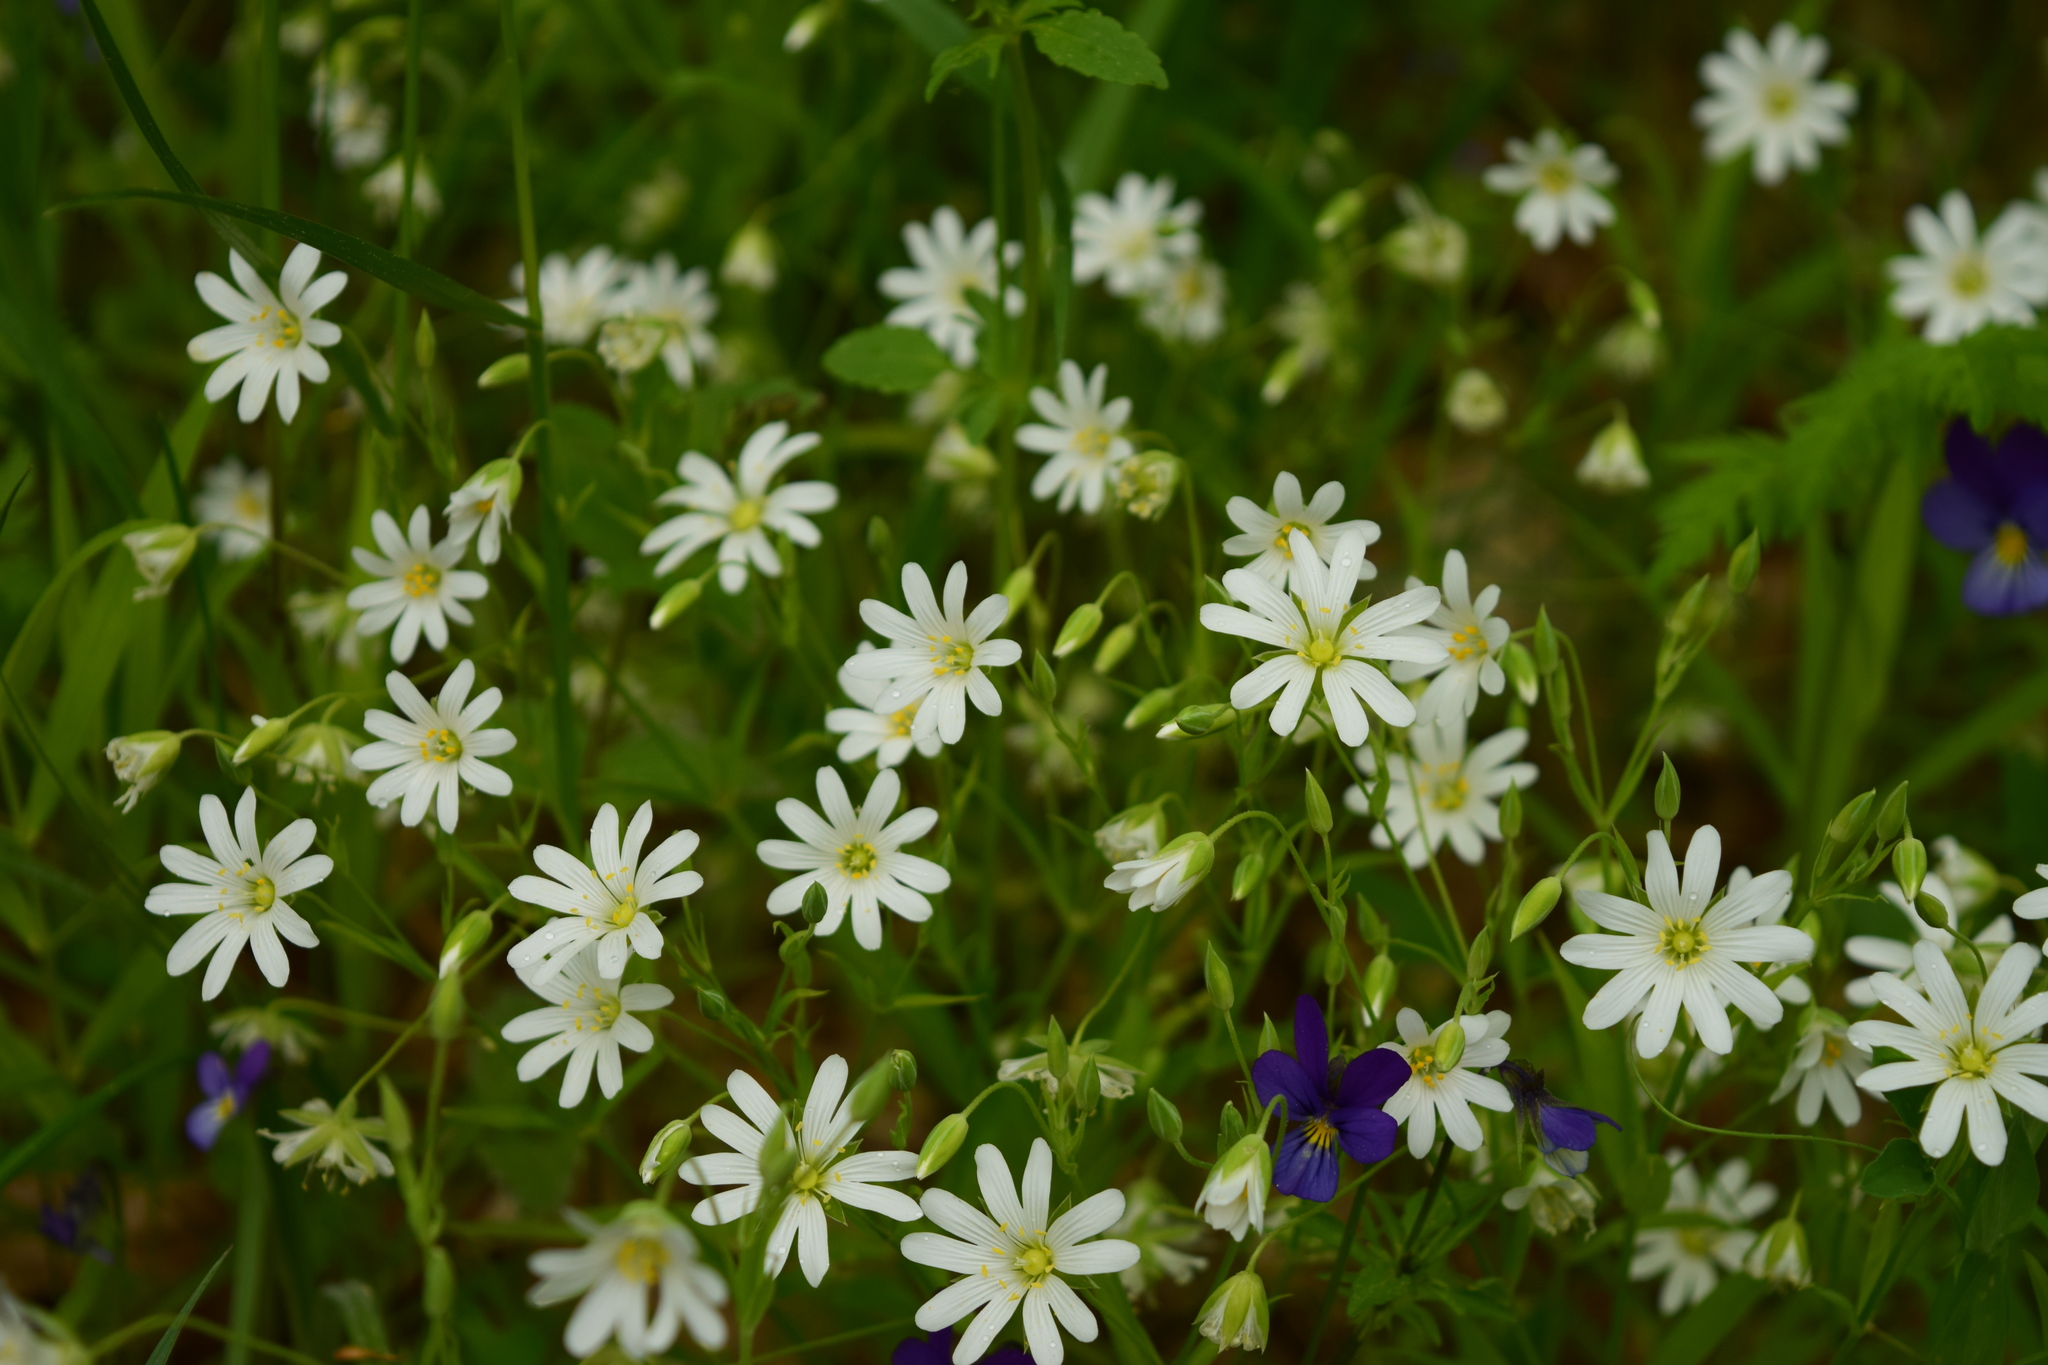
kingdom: Plantae
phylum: Tracheophyta
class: Magnoliopsida
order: Caryophyllales
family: Caryophyllaceae
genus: Rabelera
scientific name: Rabelera holostea
